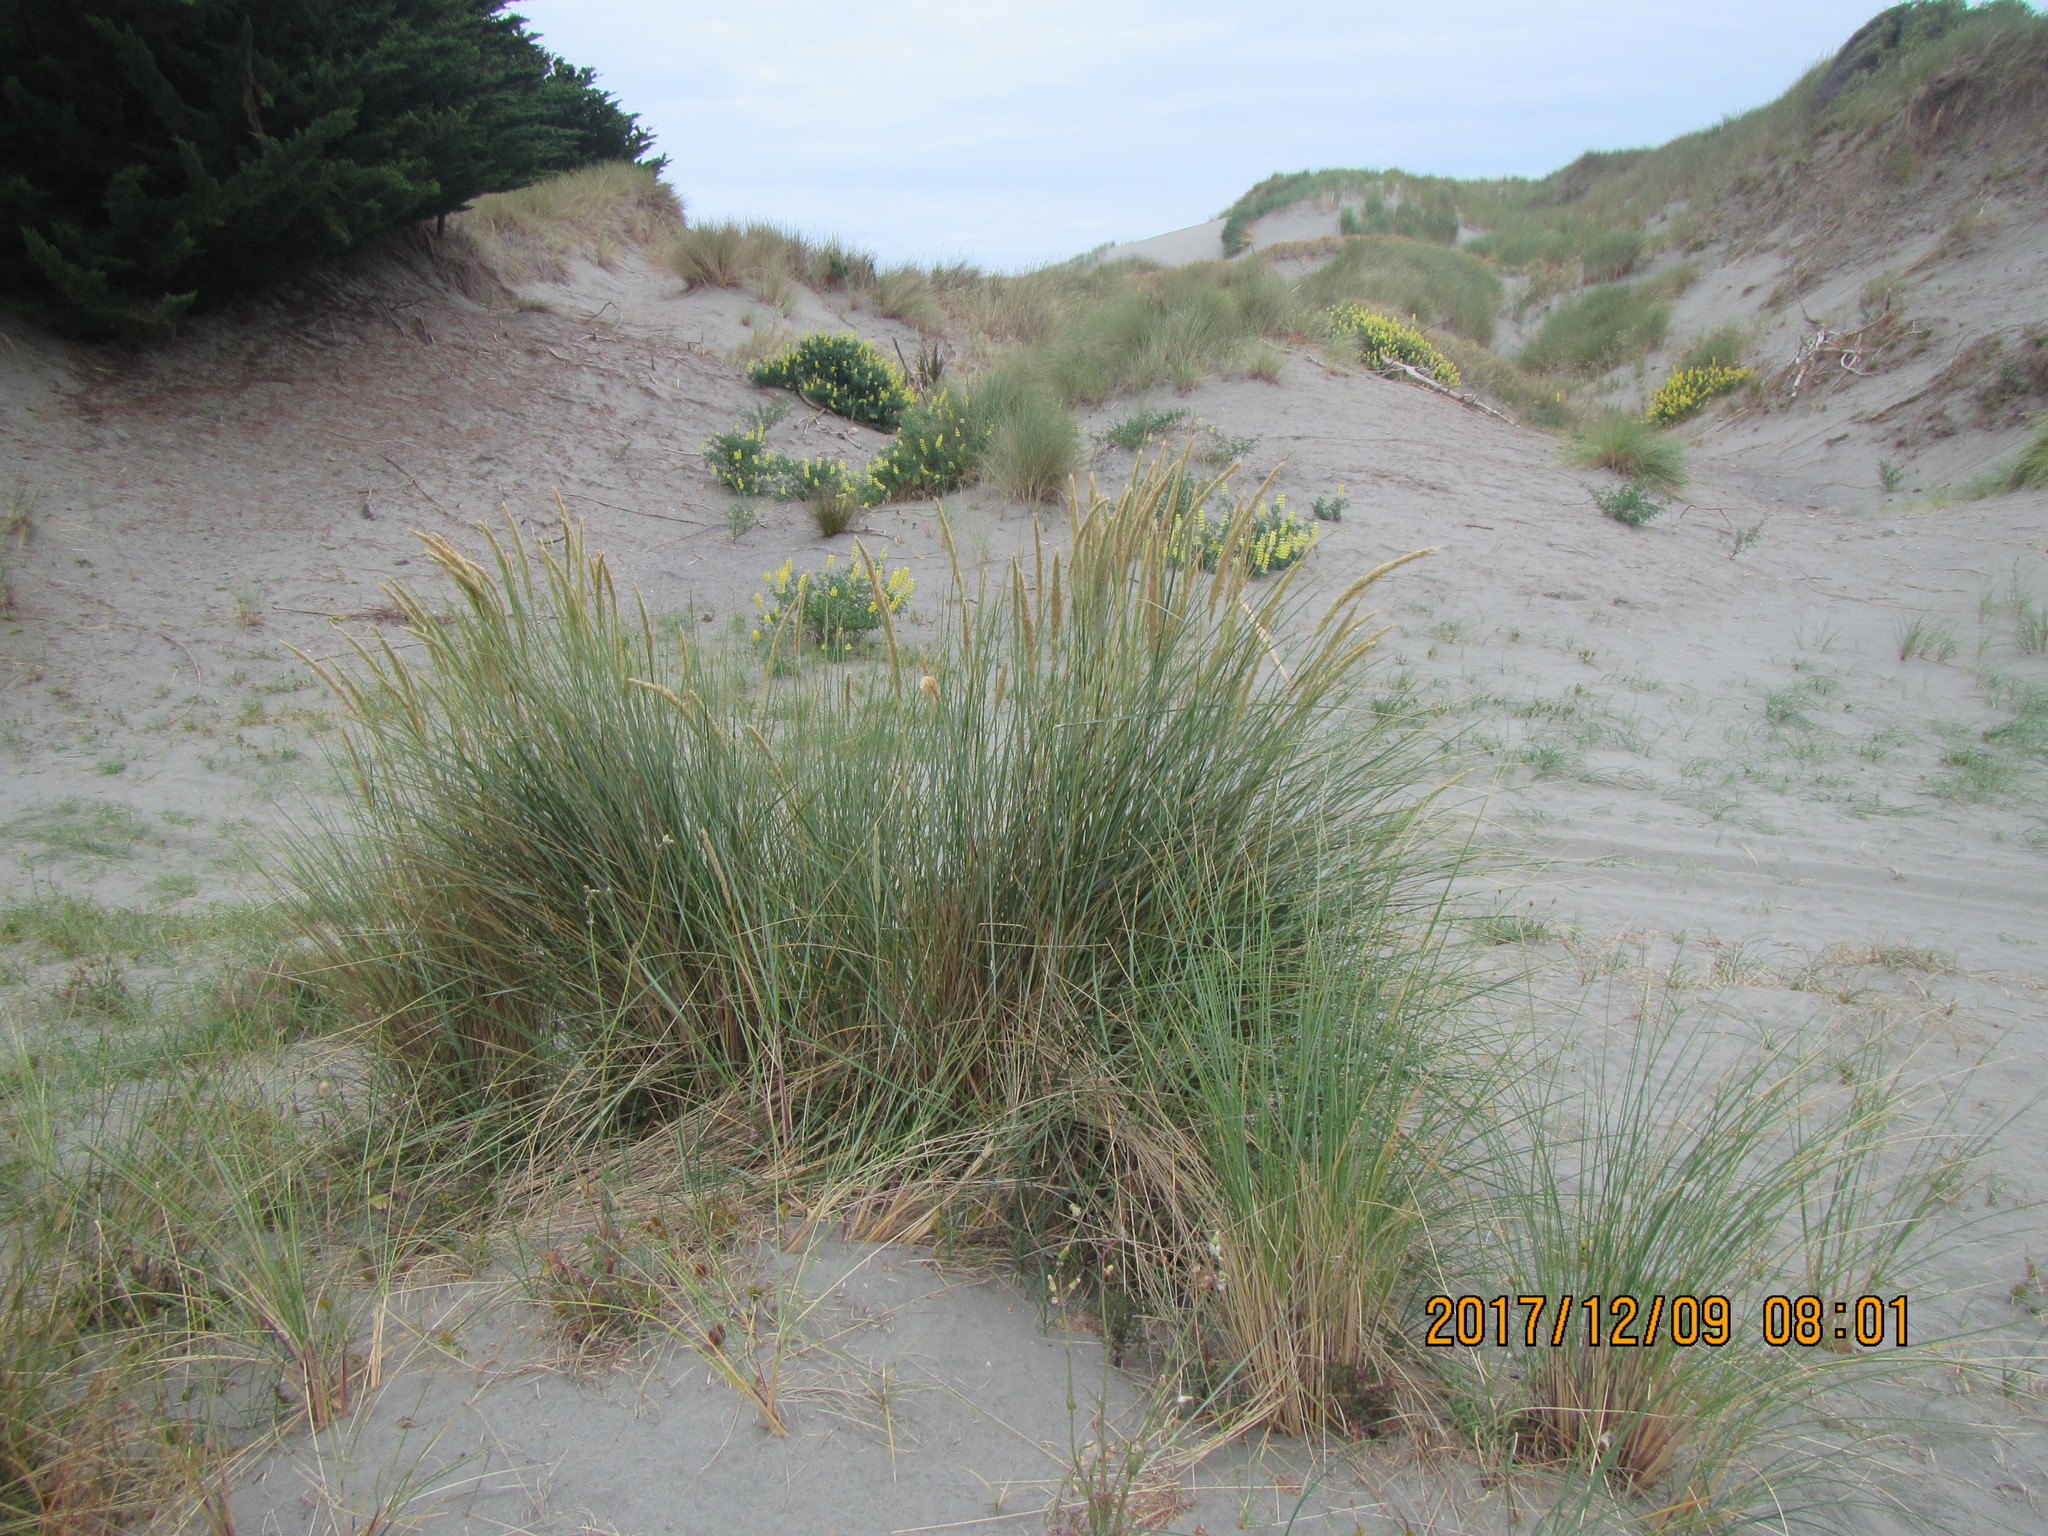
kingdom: Plantae
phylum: Tracheophyta
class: Liliopsida
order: Poales
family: Poaceae
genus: Calamagrostis
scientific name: Calamagrostis arenaria
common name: European beachgrass
